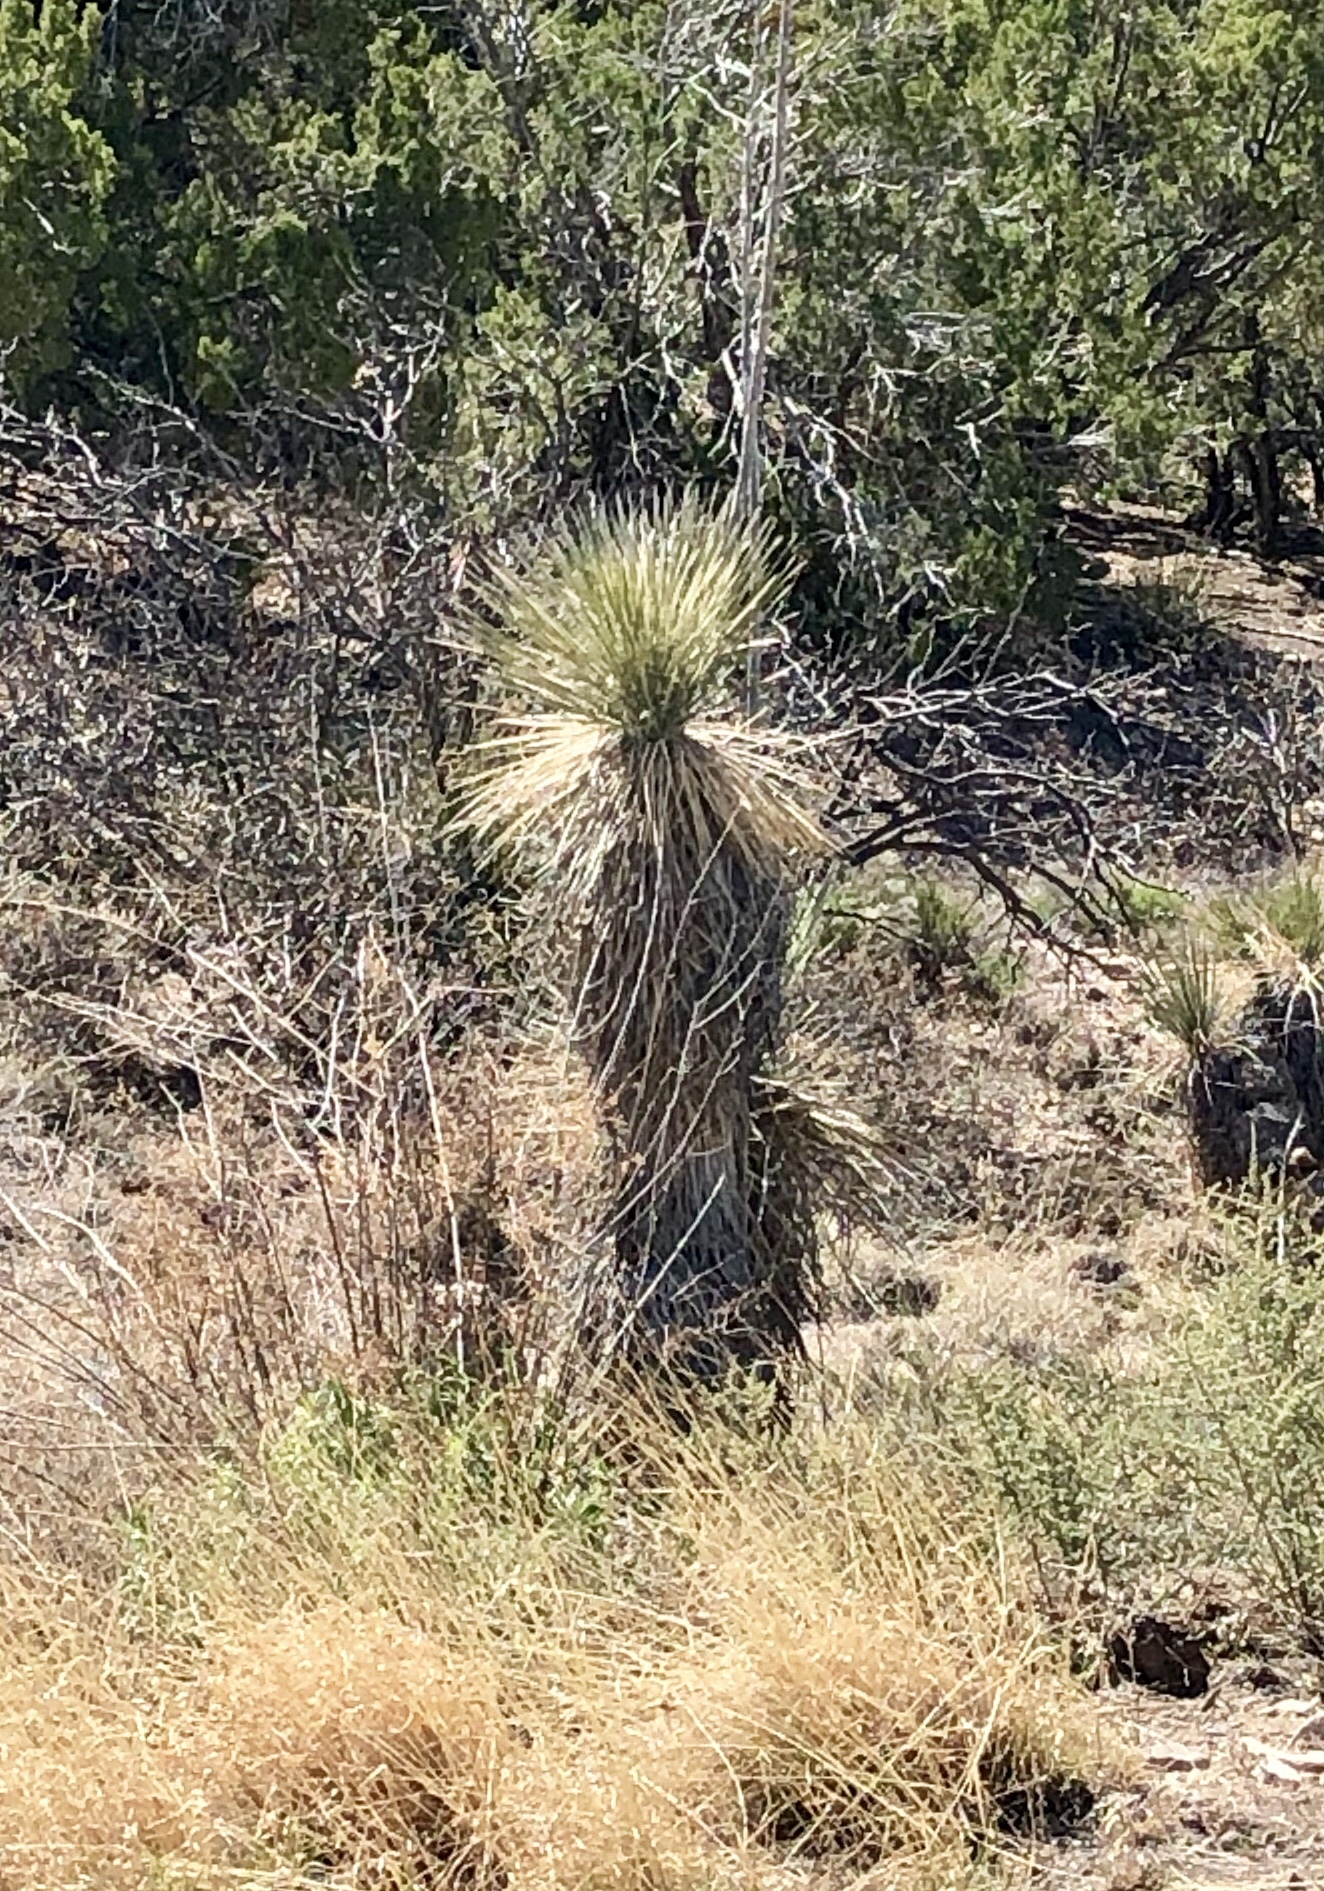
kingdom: Plantae
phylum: Tracheophyta
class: Liliopsida
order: Asparagales
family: Asparagaceae
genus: Yucca
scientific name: Yucca elata
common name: Palmella
